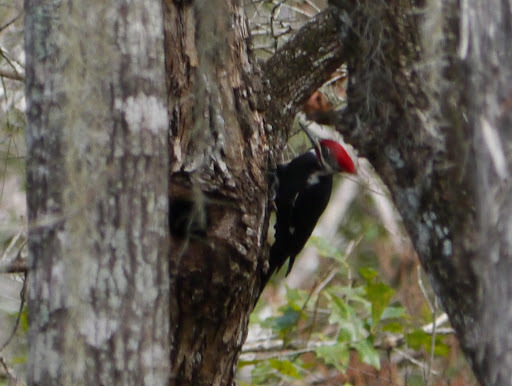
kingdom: Animalia
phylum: Chordata
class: Aves
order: Piciformes
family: Picidae
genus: Dryocopus
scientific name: Dryocopus pileatus
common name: Pileated woodpecker
